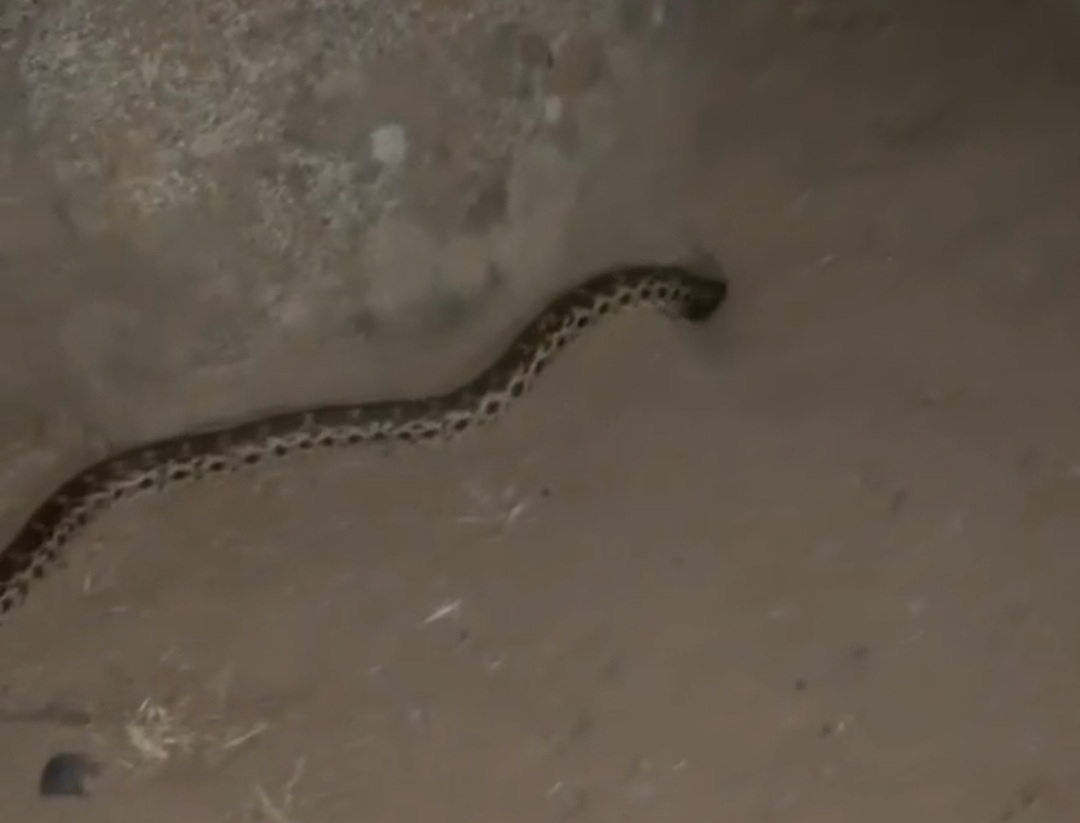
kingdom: Animalia
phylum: Chordata
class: Squamata
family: Colubridae
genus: Pituophis
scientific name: Pituophis catenifer
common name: Gopher snake
